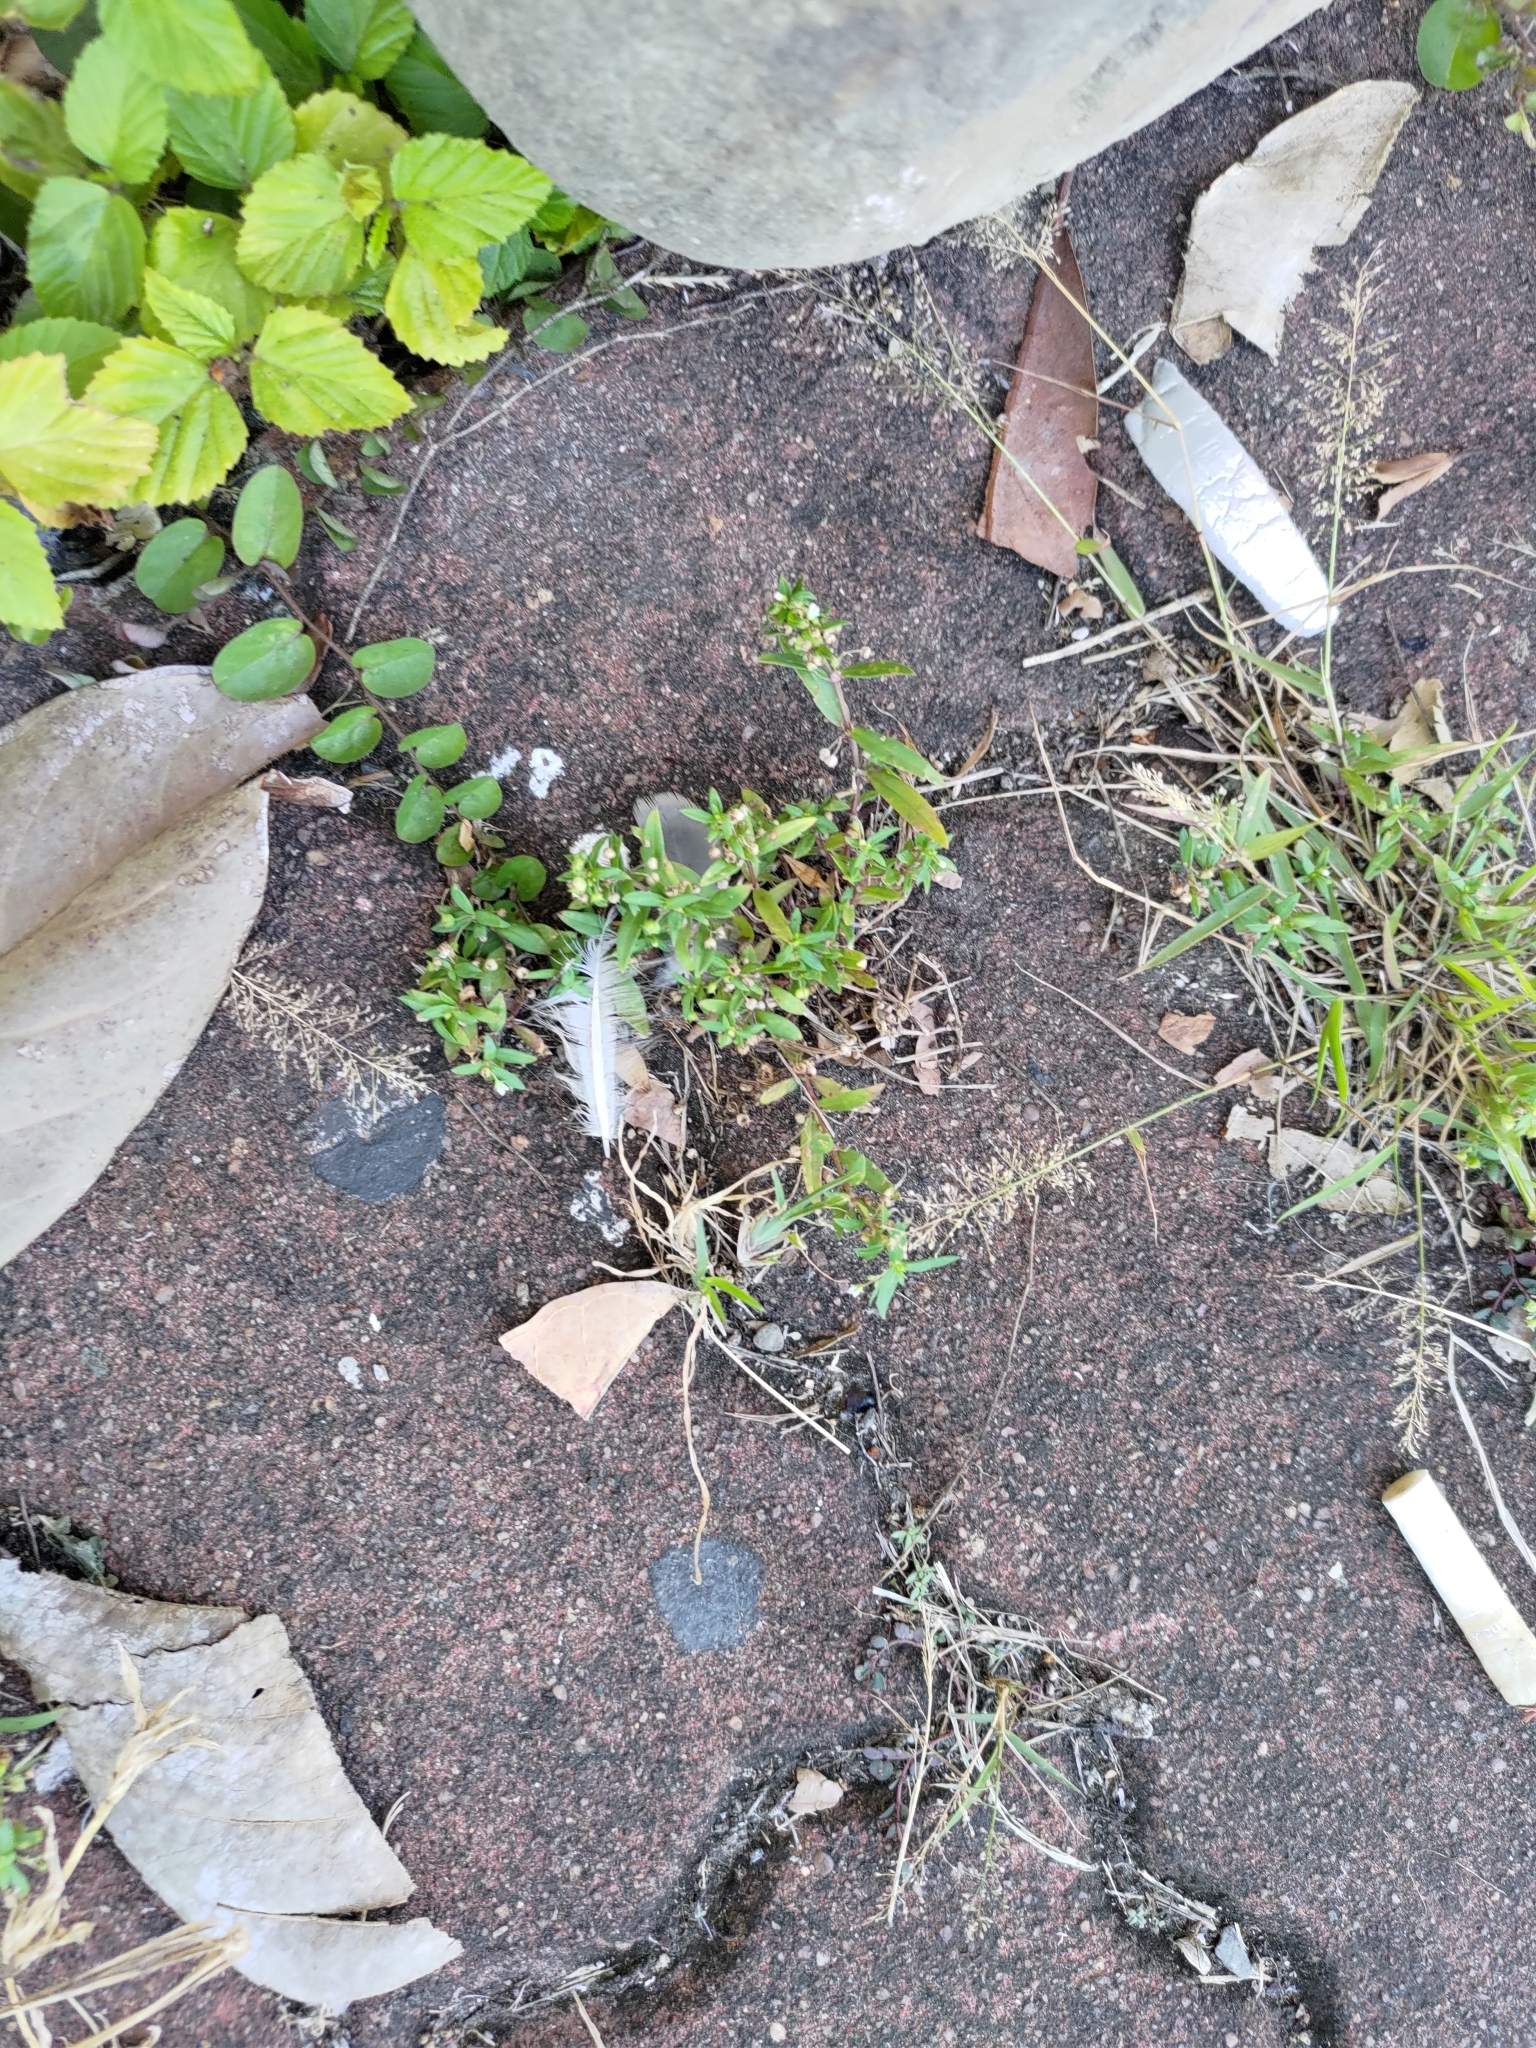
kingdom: Plantae
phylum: Tracheophyta
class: Magnoliopsida
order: Gentianales
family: Rubiaceae
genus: Oldenlandia
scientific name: Oldenlandia corymbosa
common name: Flat-top mille graines
